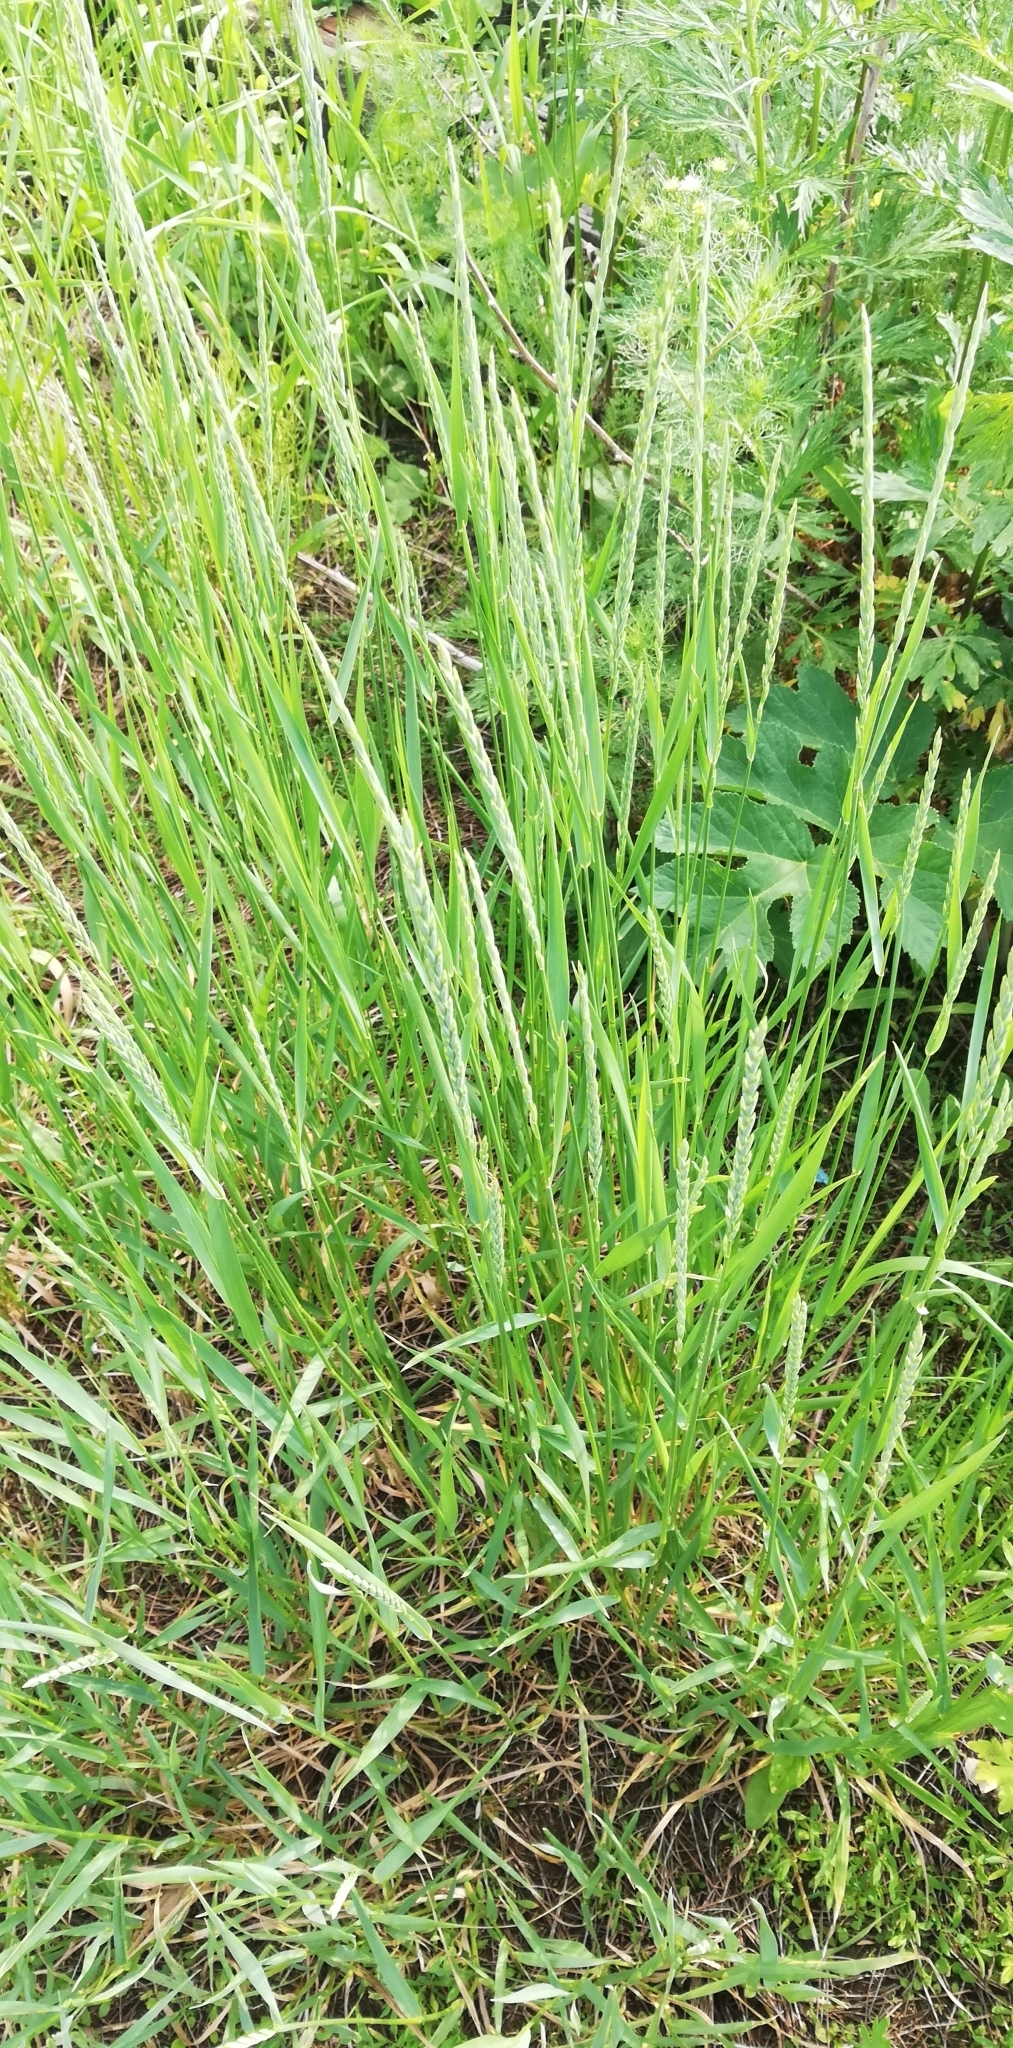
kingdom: Plantae
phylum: Tracheophyta
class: Liliopsida
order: Poales
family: Poaceae
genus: Elymus
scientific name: Elymus repens
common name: Quackgrass
